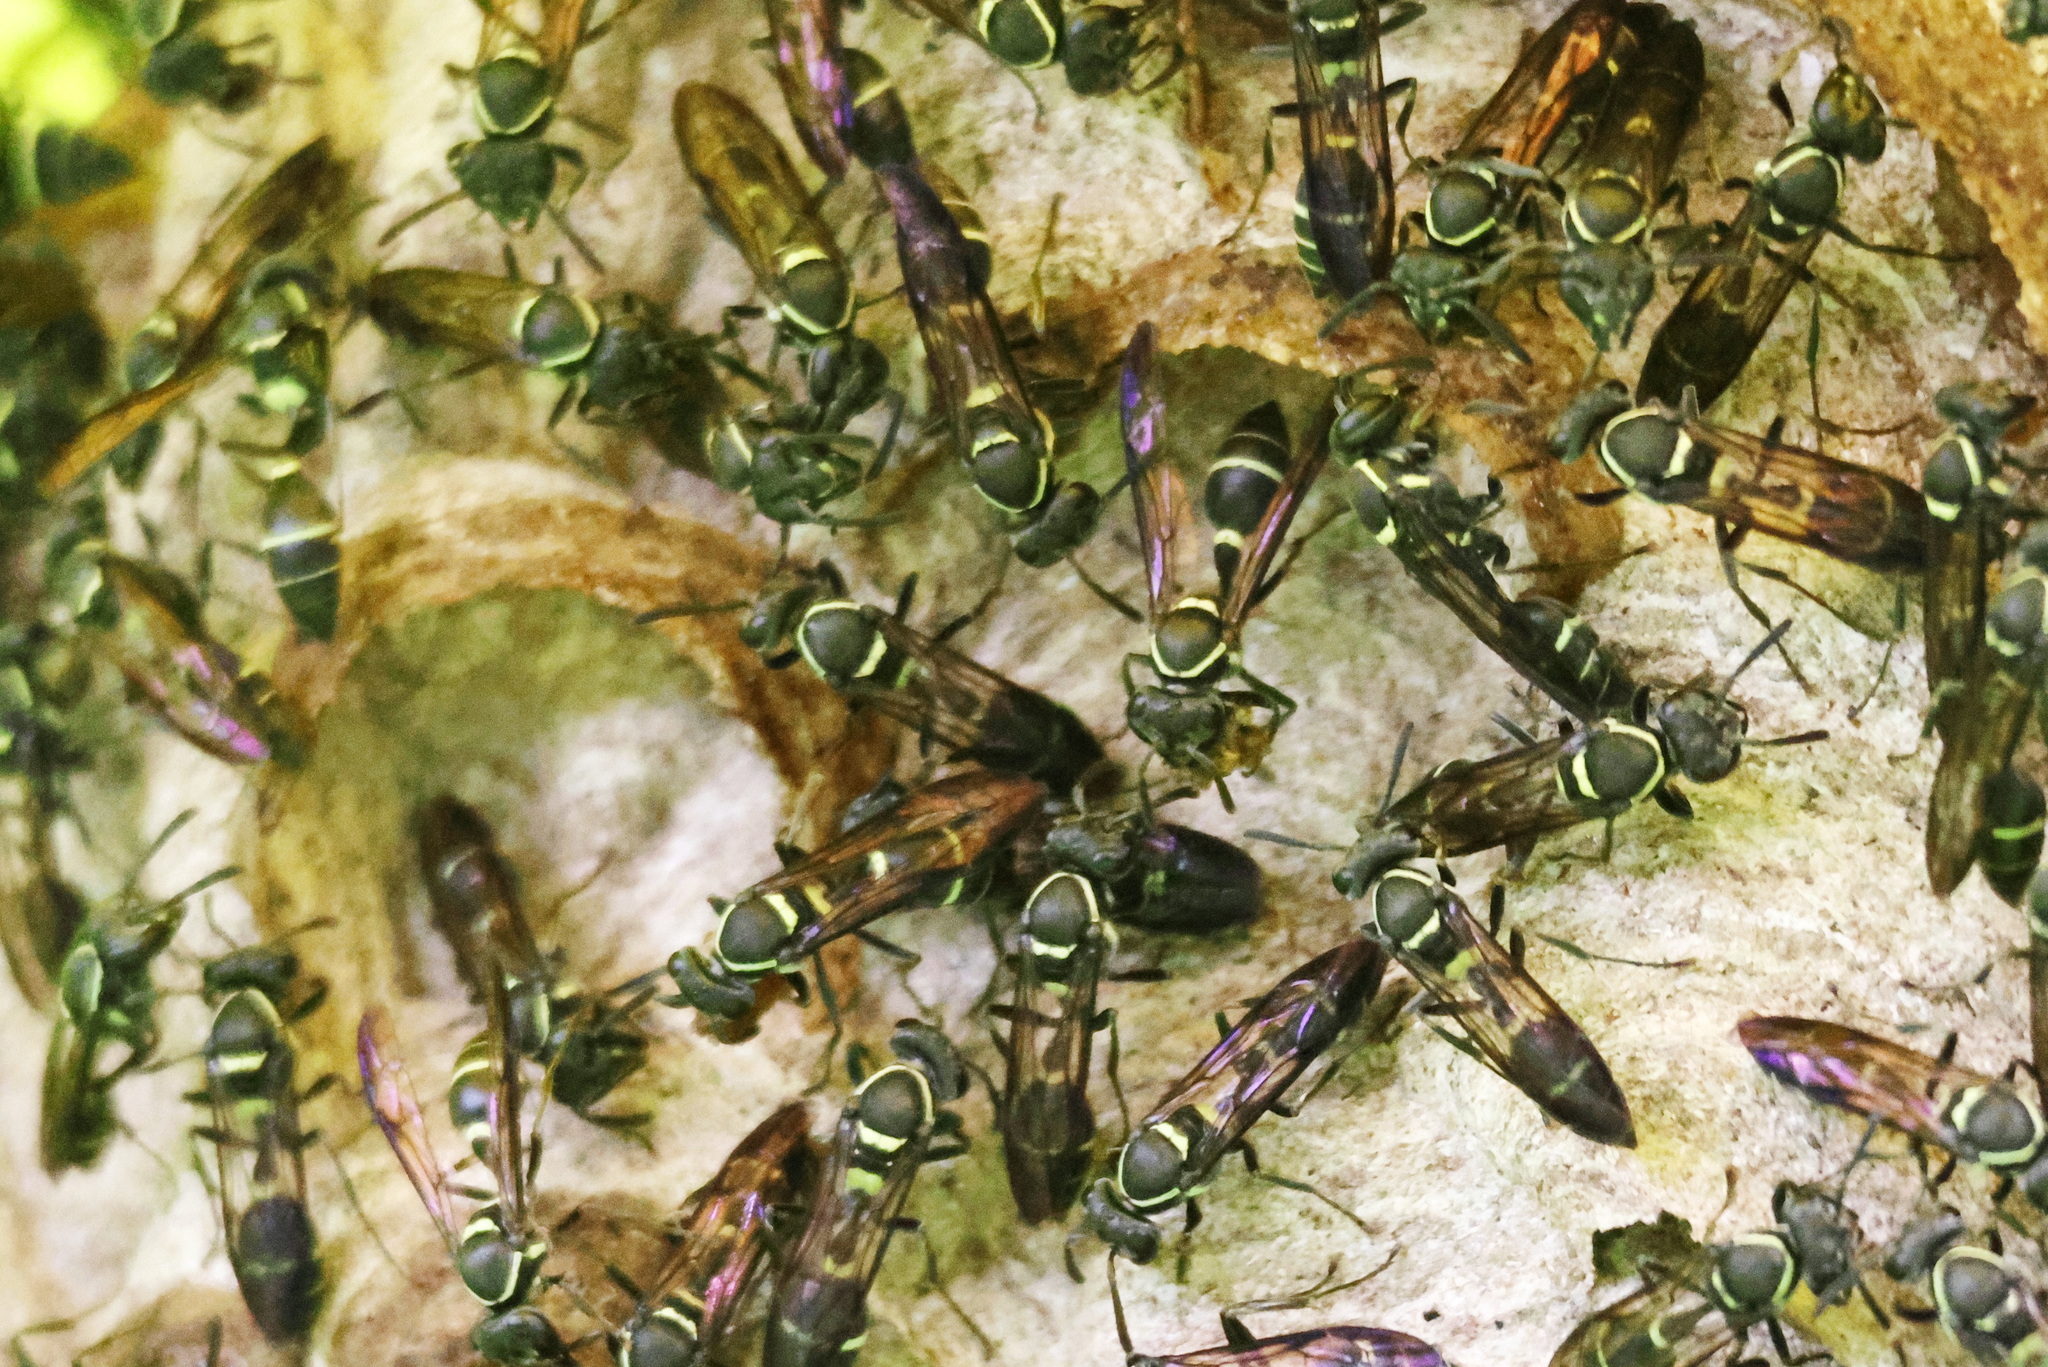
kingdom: Animalia
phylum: Arthropoda
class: Insecta
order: Hymenoptera
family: Eumenidae
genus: Polybia
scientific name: Polybia plebeja
